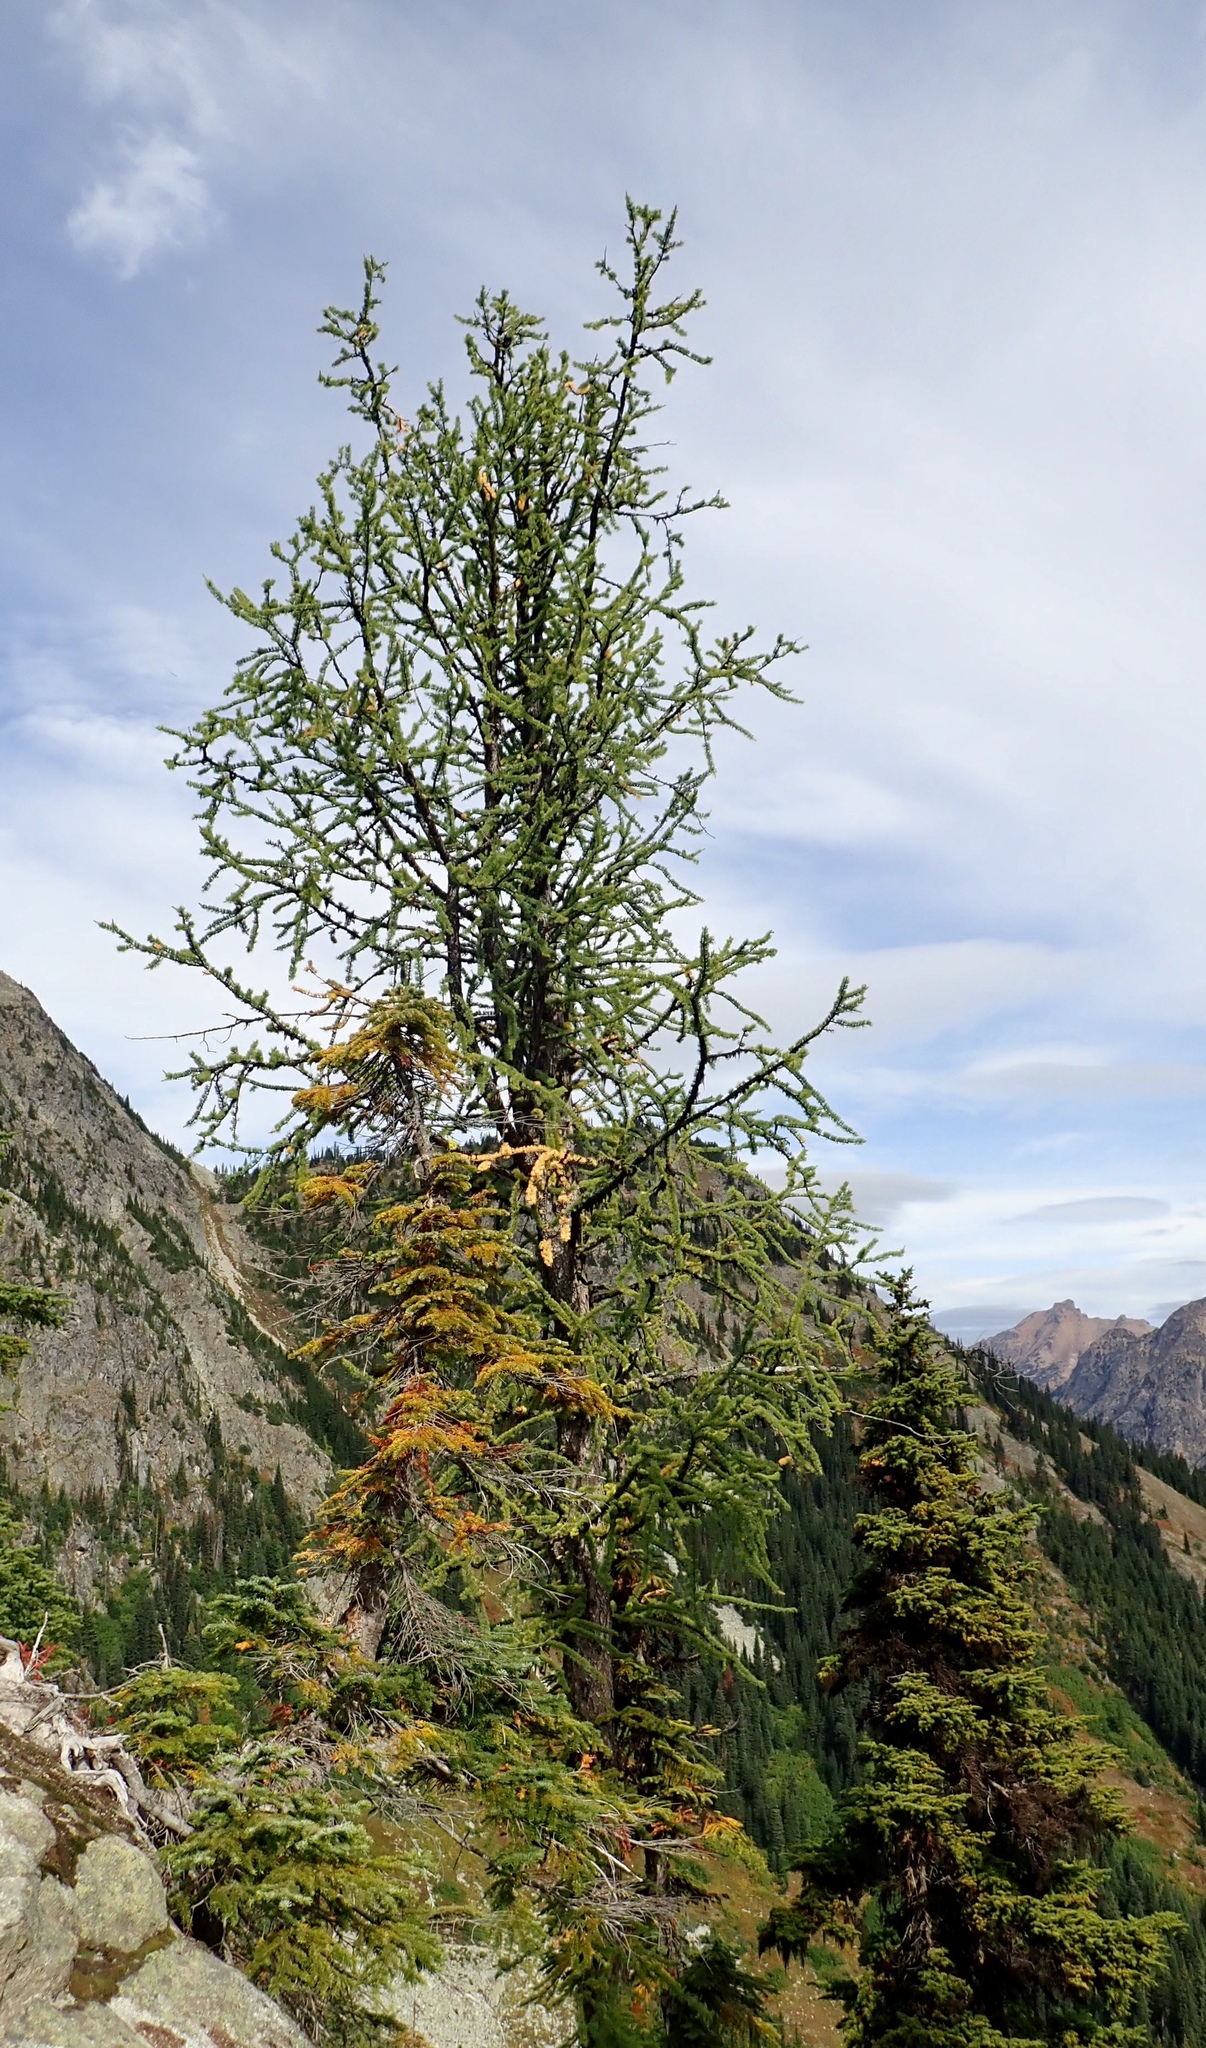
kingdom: Plantae
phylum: Tracheophyta
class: Pinopsida
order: Pinales
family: Pinaceae
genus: Larix
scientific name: Larix lyallii
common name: Alpine larch
